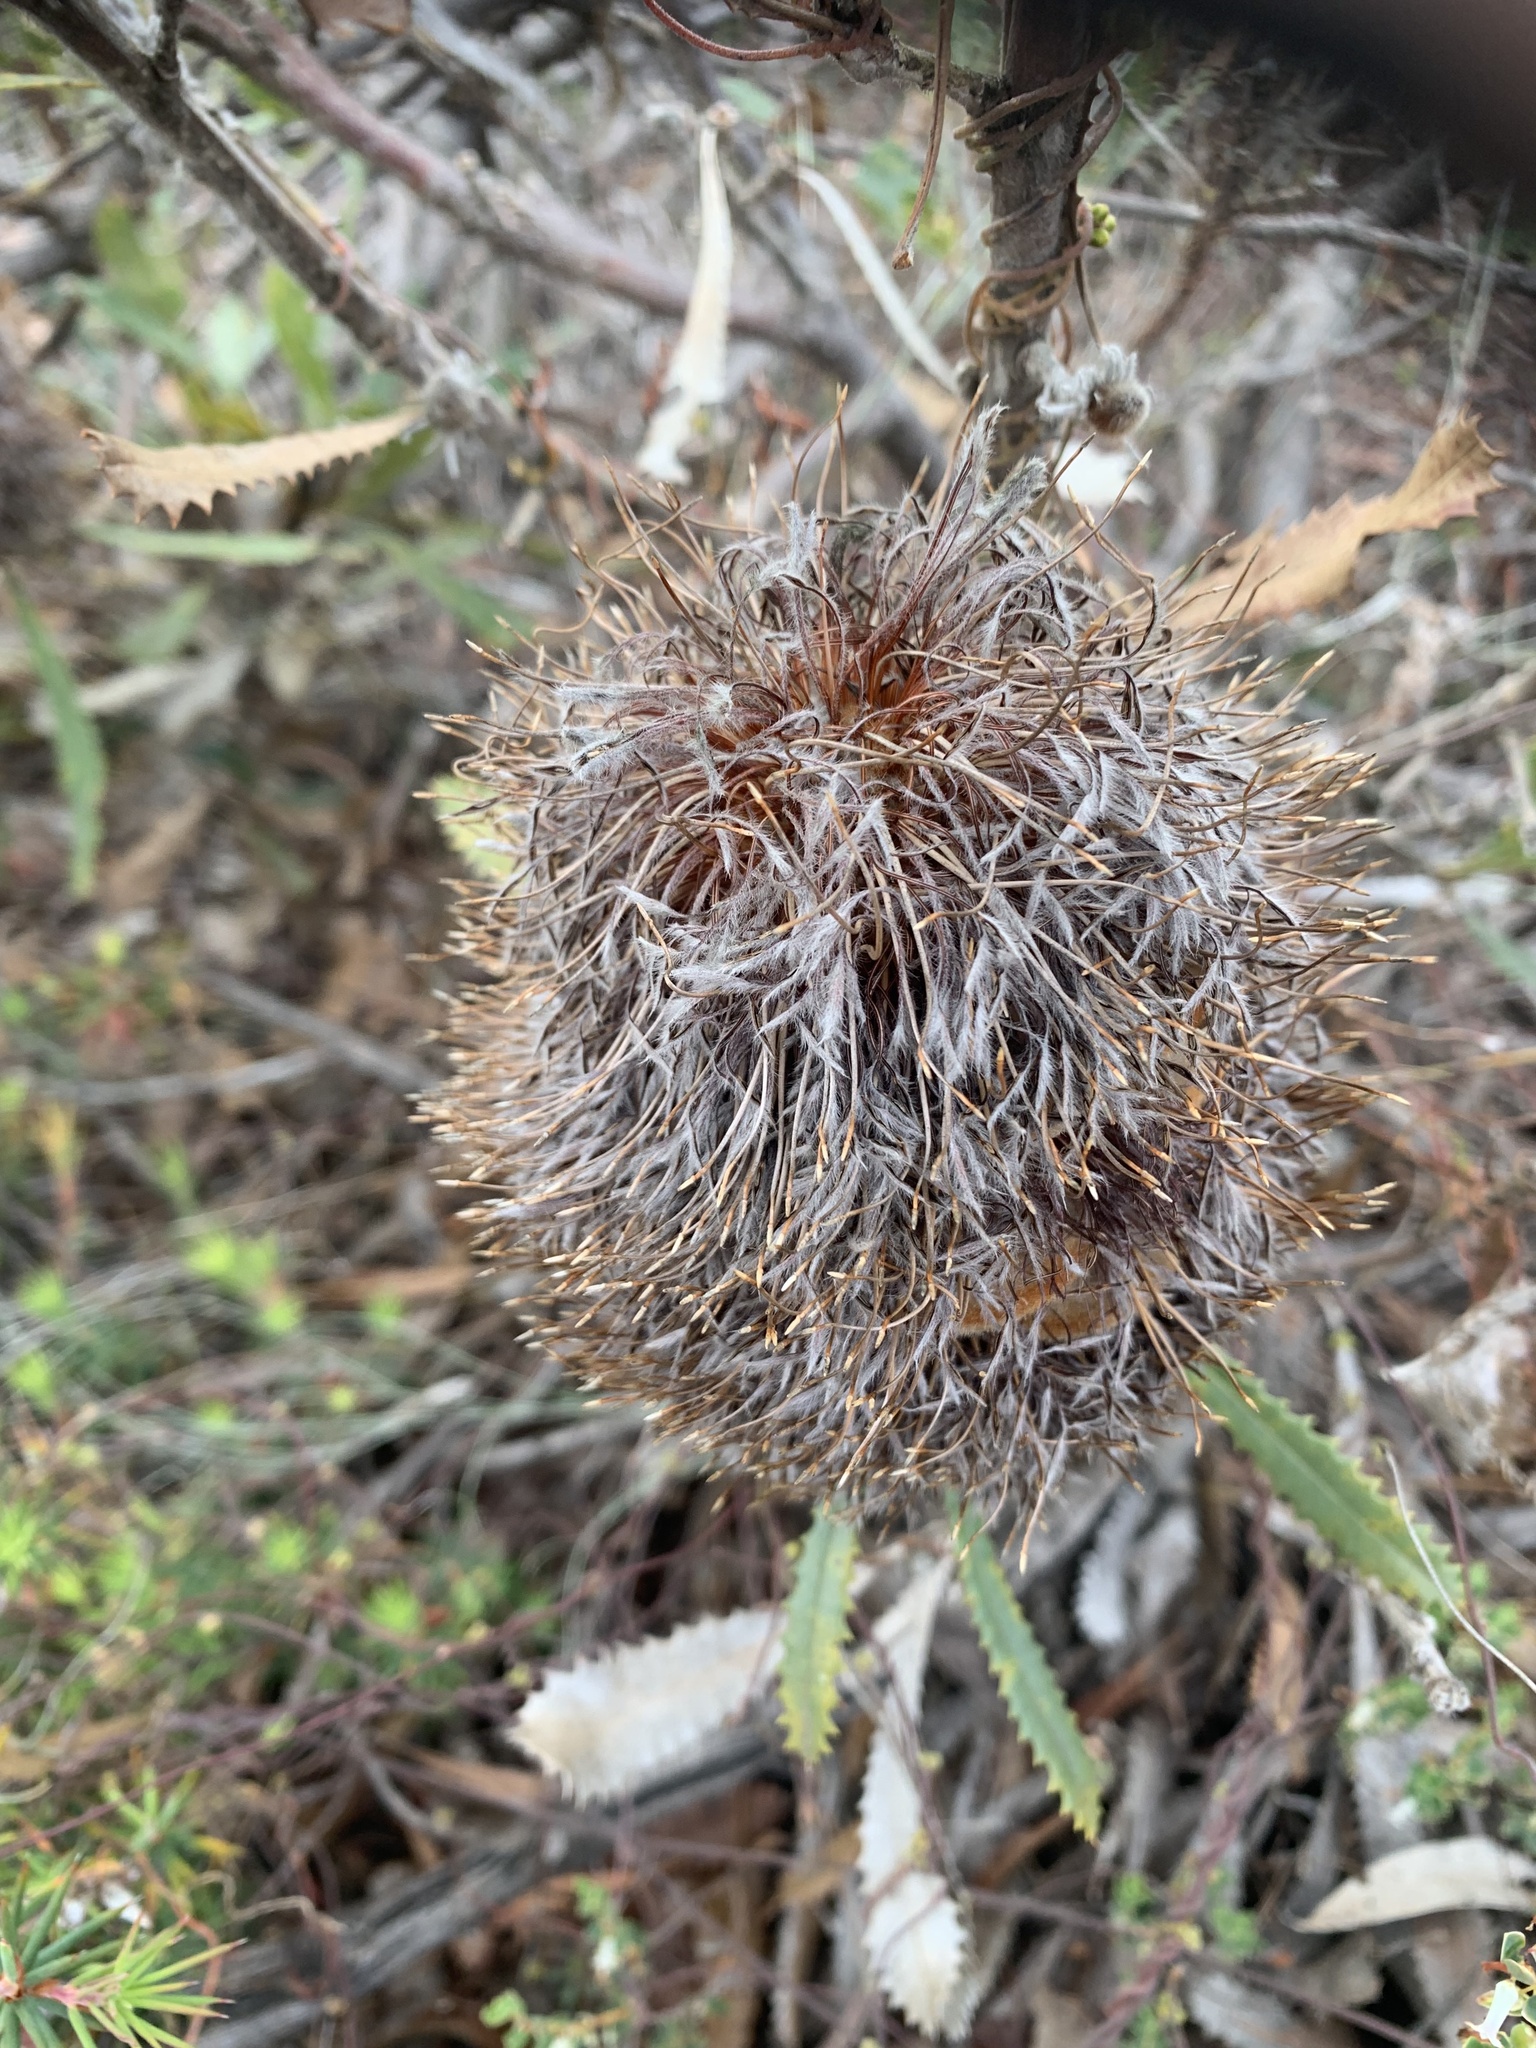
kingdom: Plantae
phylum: Tracheophyta
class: Magnoliopsida
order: Proteales
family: Proteaceae
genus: Banksia
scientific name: Banksia ornata
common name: Desert banksia
